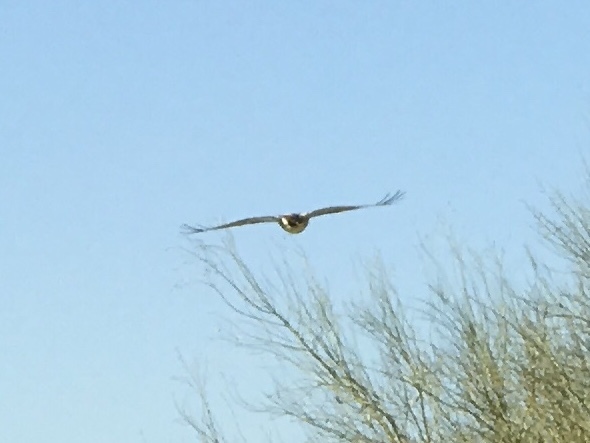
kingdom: Animalia
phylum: Chordata
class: Aves
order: Accipitriformes
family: Accipitridae
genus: Buteo
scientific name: Buteo jamaicensis
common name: Red-tailed hawk
